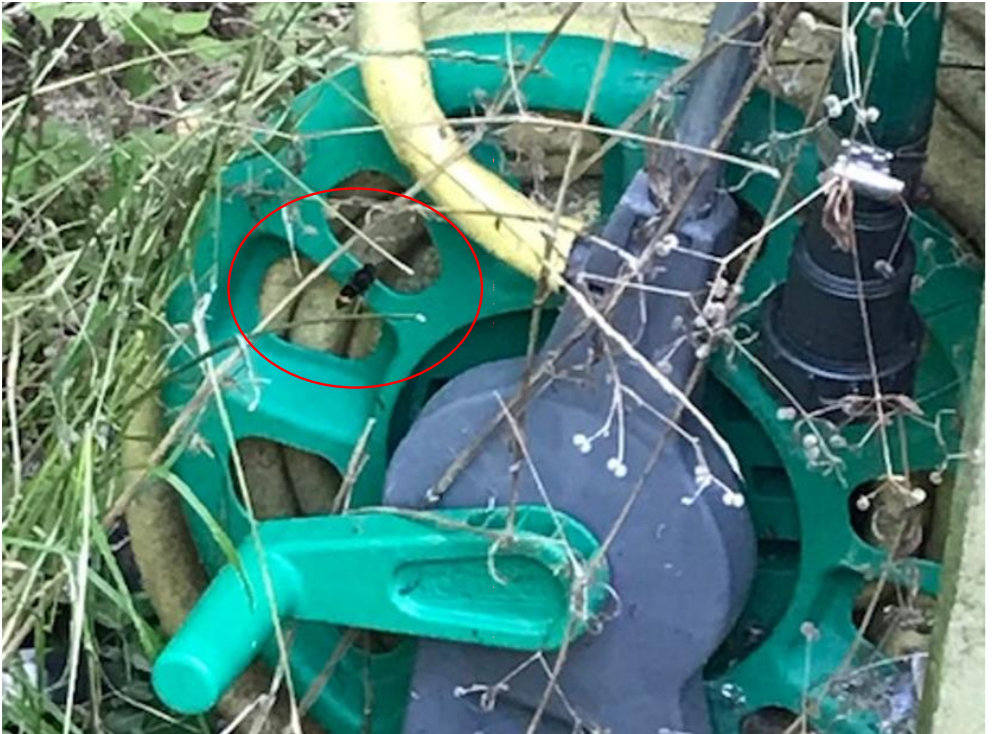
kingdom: Animalia
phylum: Arthropoda
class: Insecta
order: Hymenoptera
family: Vespidae
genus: Vespa
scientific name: Vespa velutina
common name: Asian hornet
